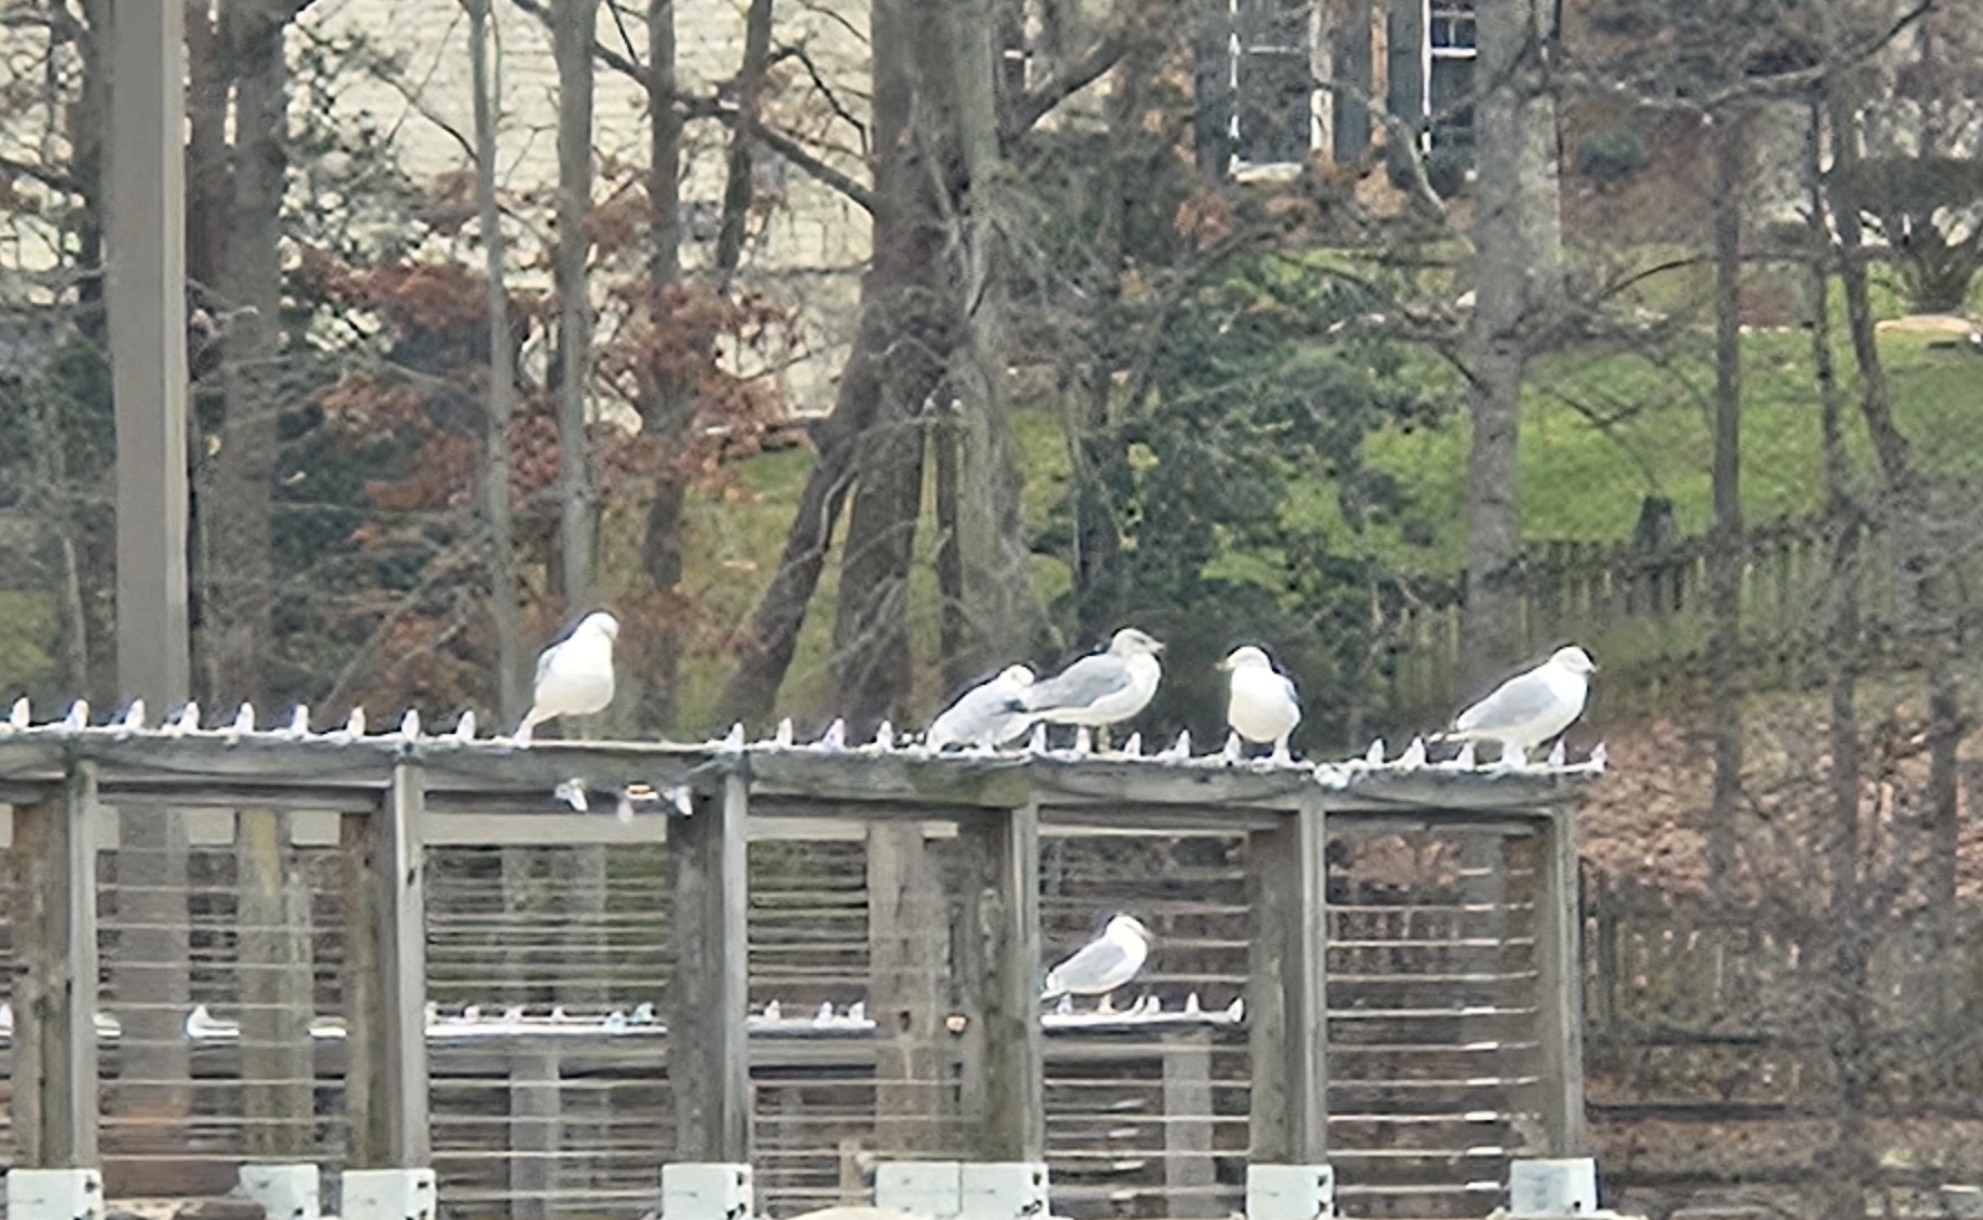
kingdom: Animalia
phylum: Chordata
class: Aves
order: Charadriiformes
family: Laridae
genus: Larus
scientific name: Larus delawarensis
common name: Ring-billed gull
